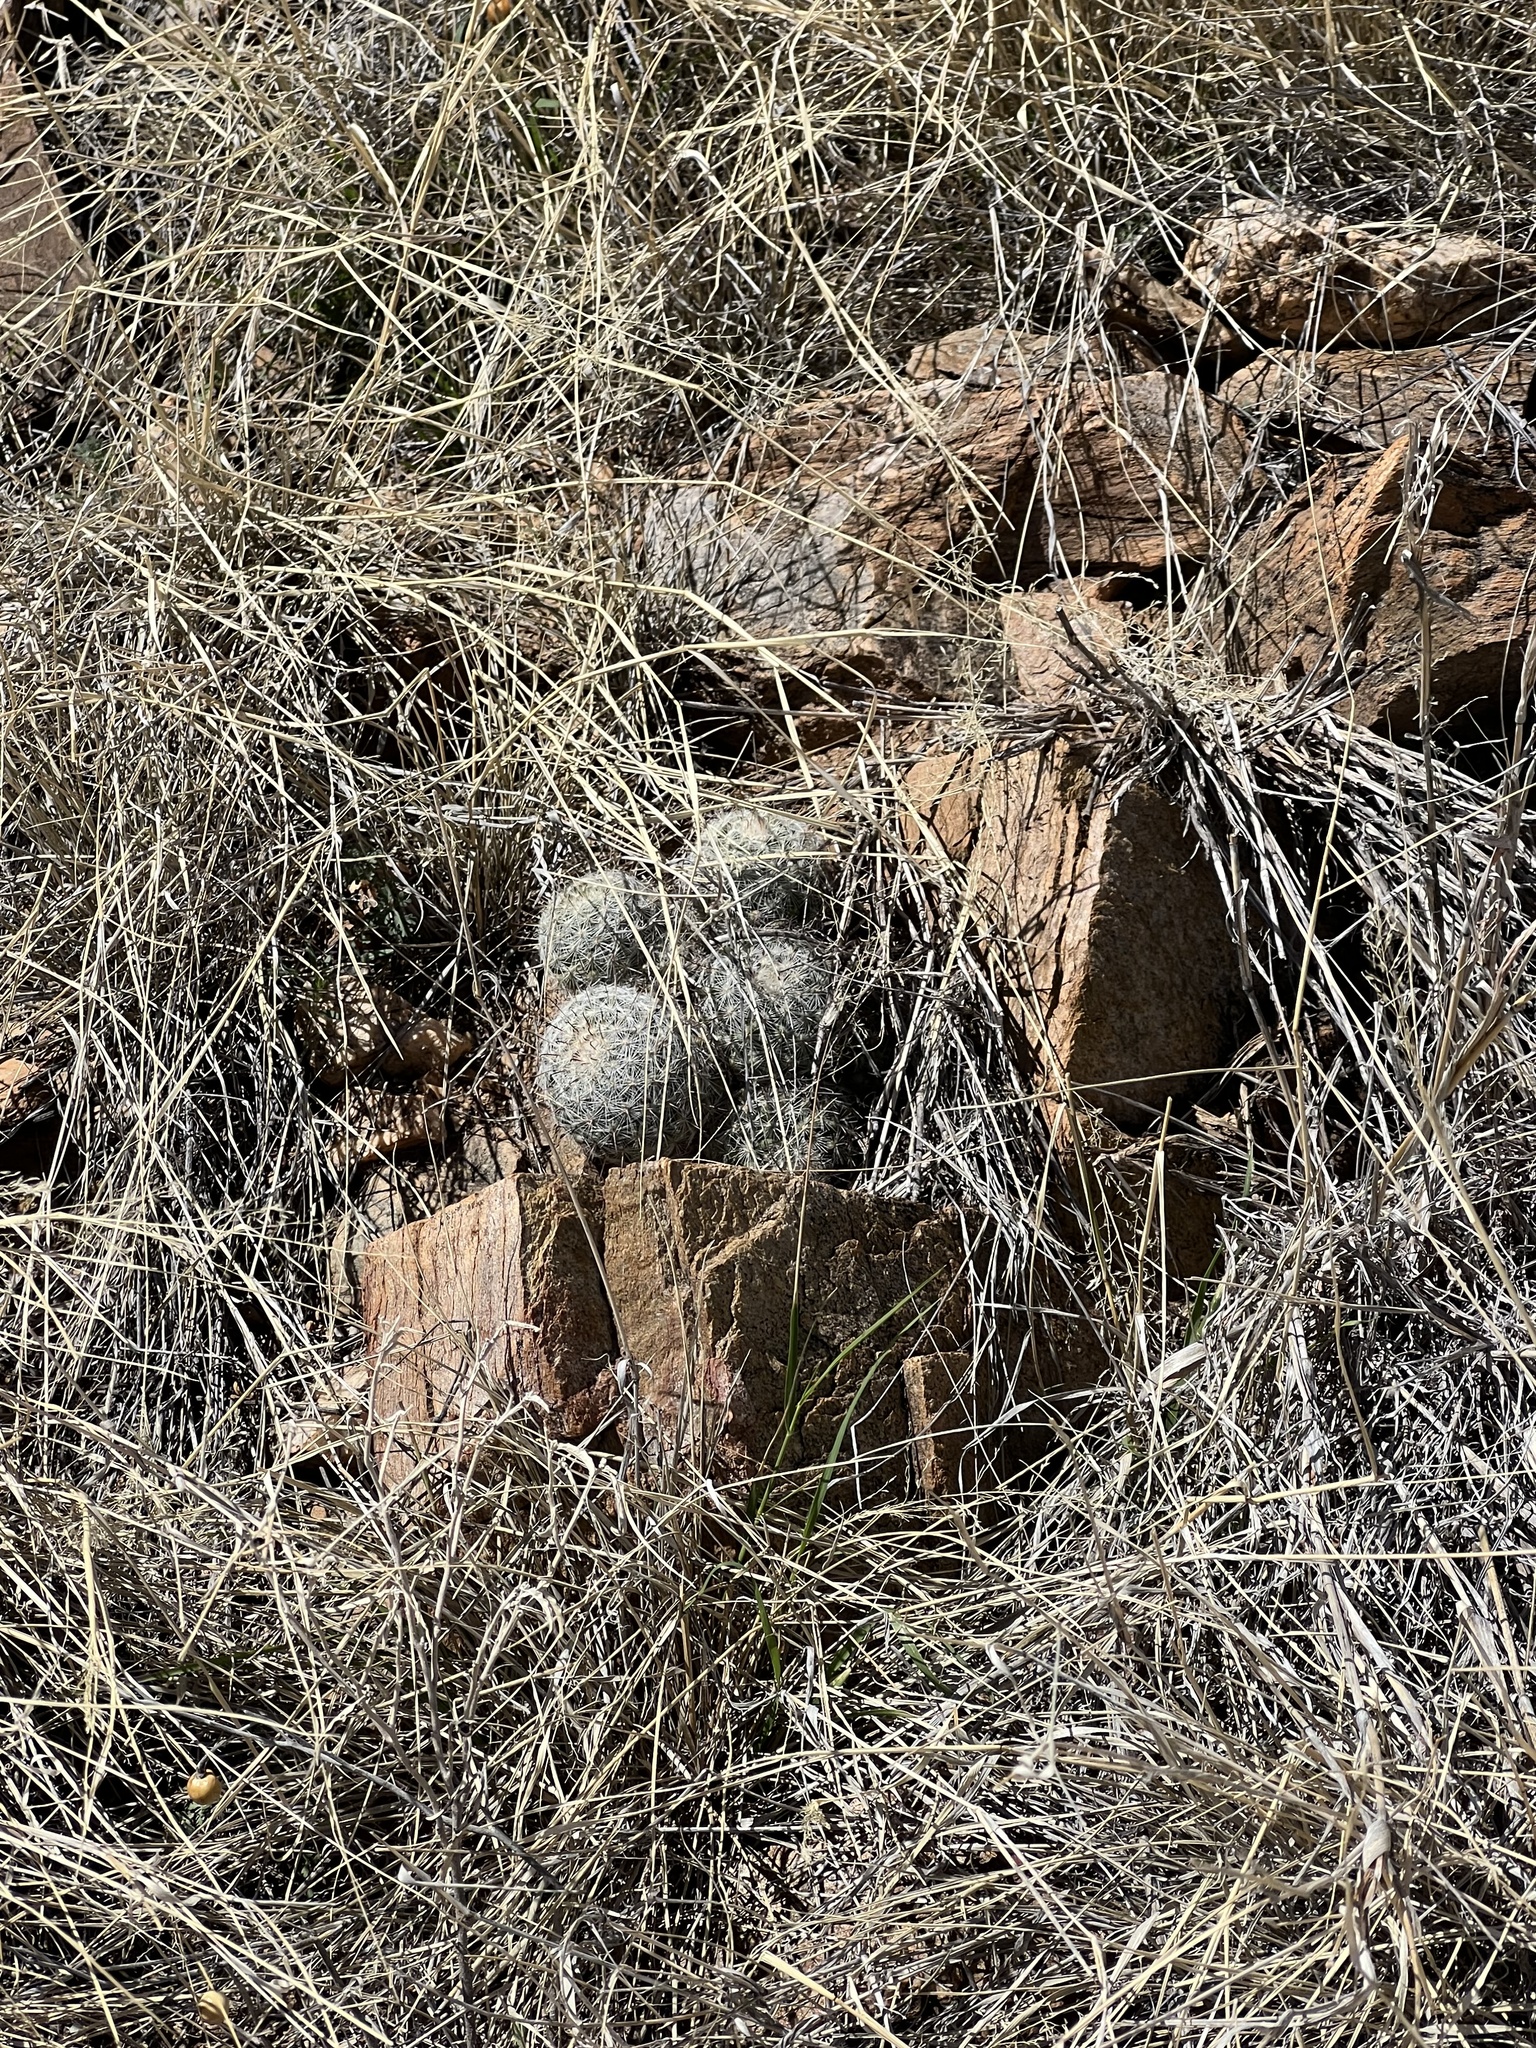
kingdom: Plantae
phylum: Tracheophyta
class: Magnoliopsida
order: Caryophyllales
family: Cactaceae
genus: Cochemiea
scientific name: Cochemiea grahamii
